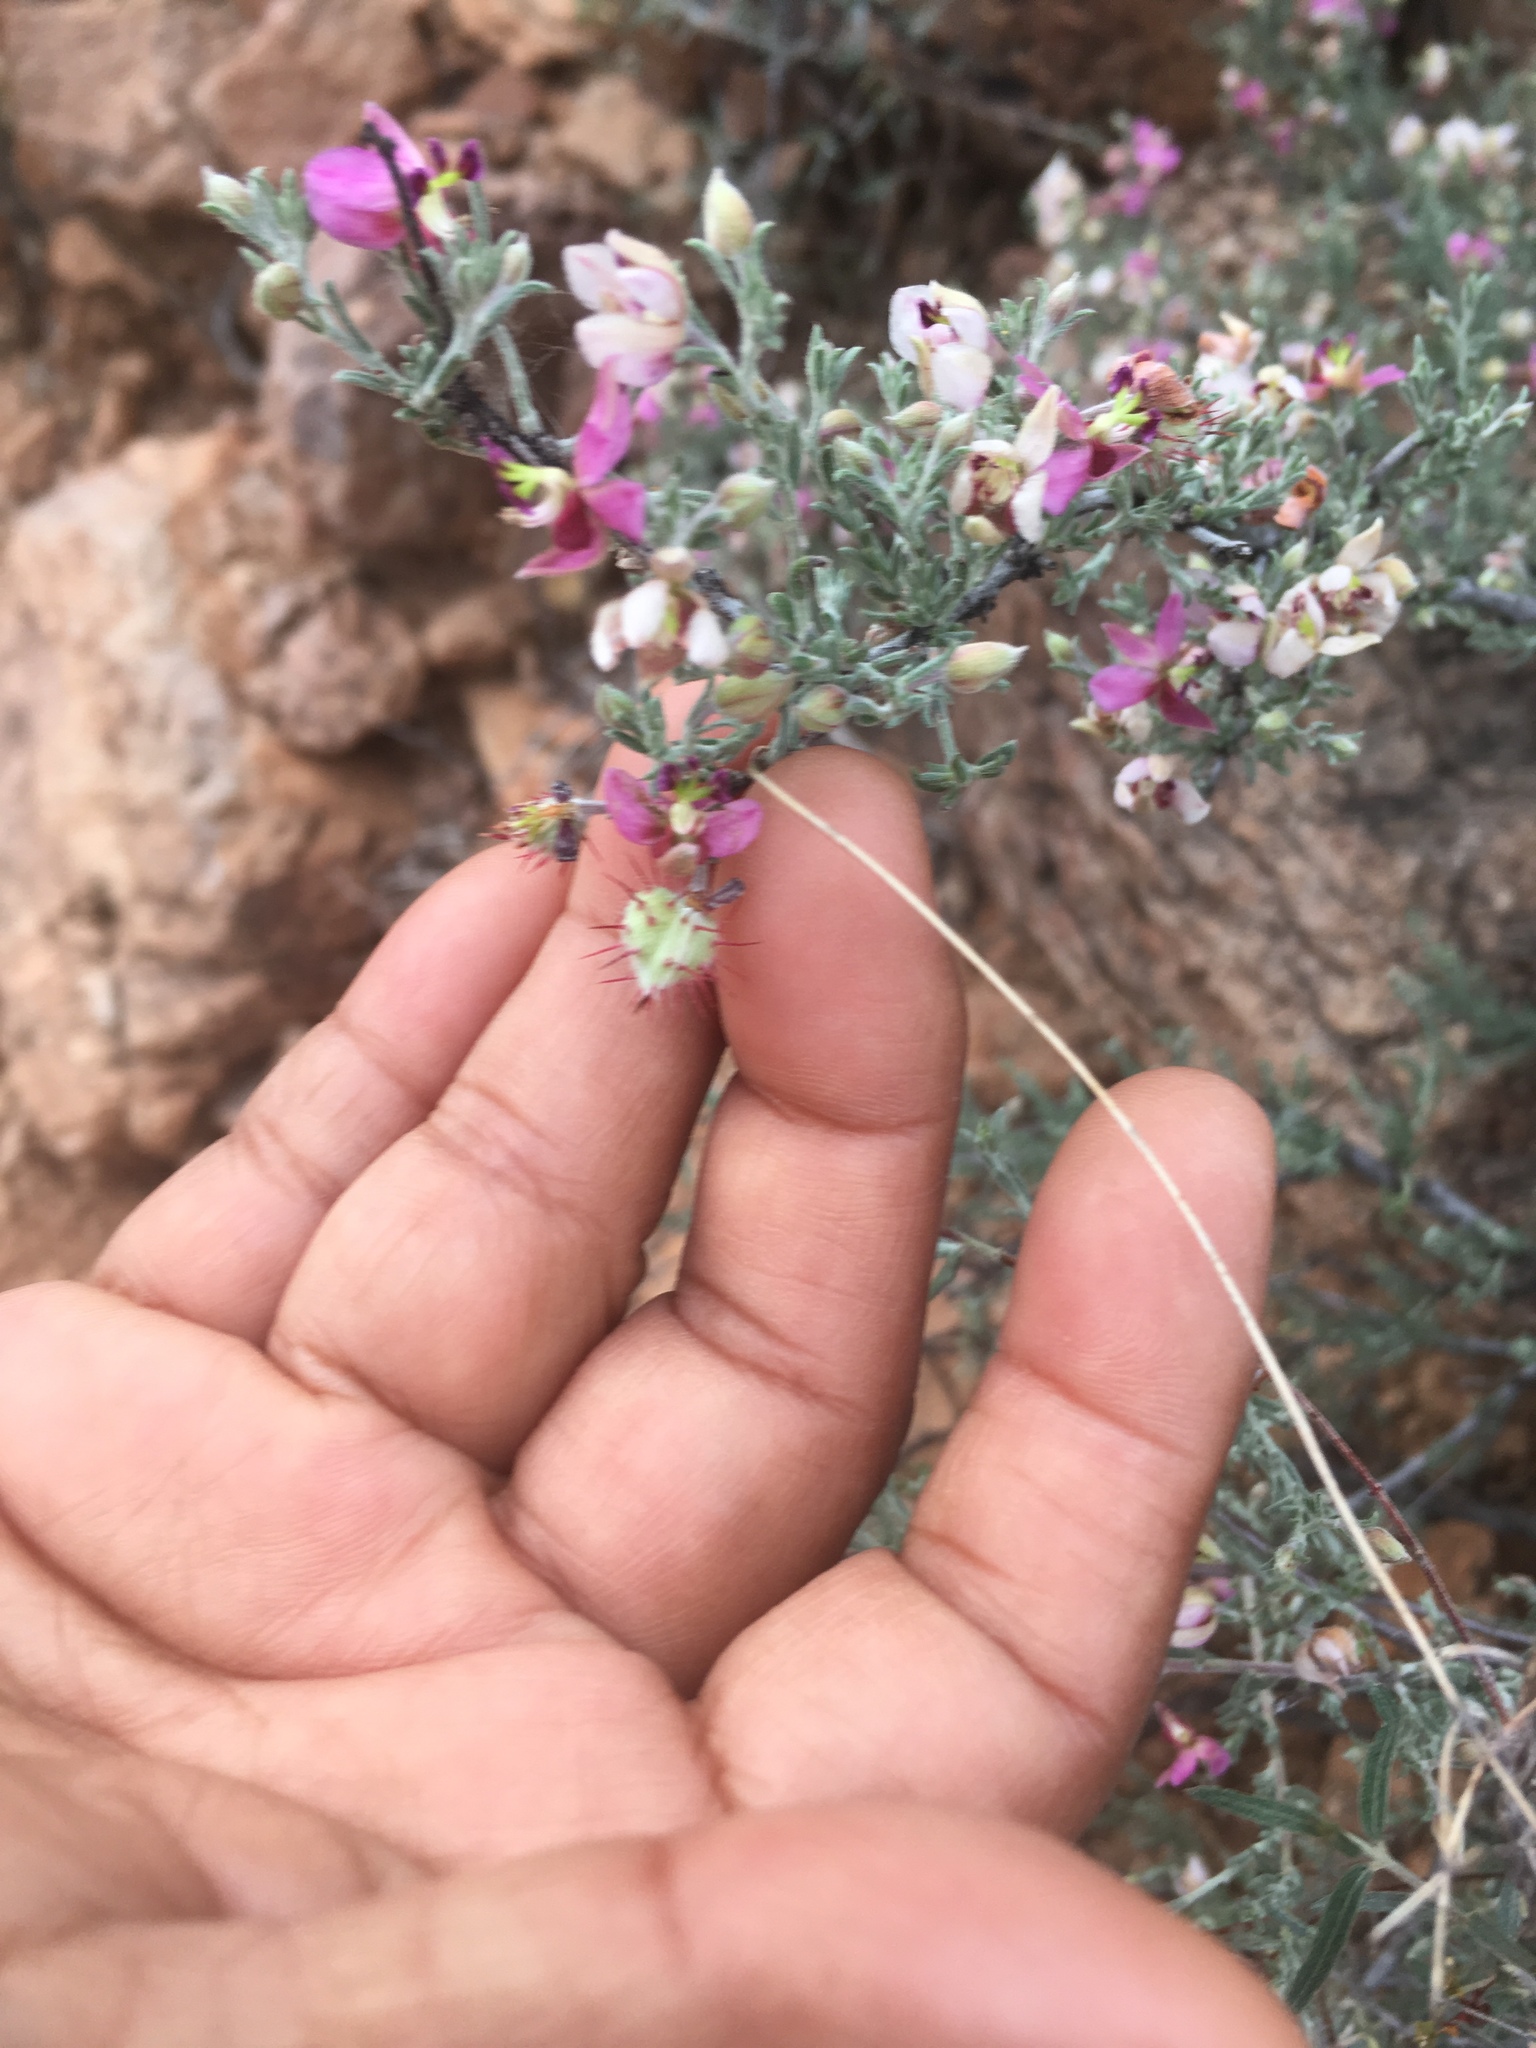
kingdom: Plantae
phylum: Tracheophyta
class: Magnoliopsida
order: Zygophyllales
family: Krameriaceae
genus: Krameria
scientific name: Krameria erecta
